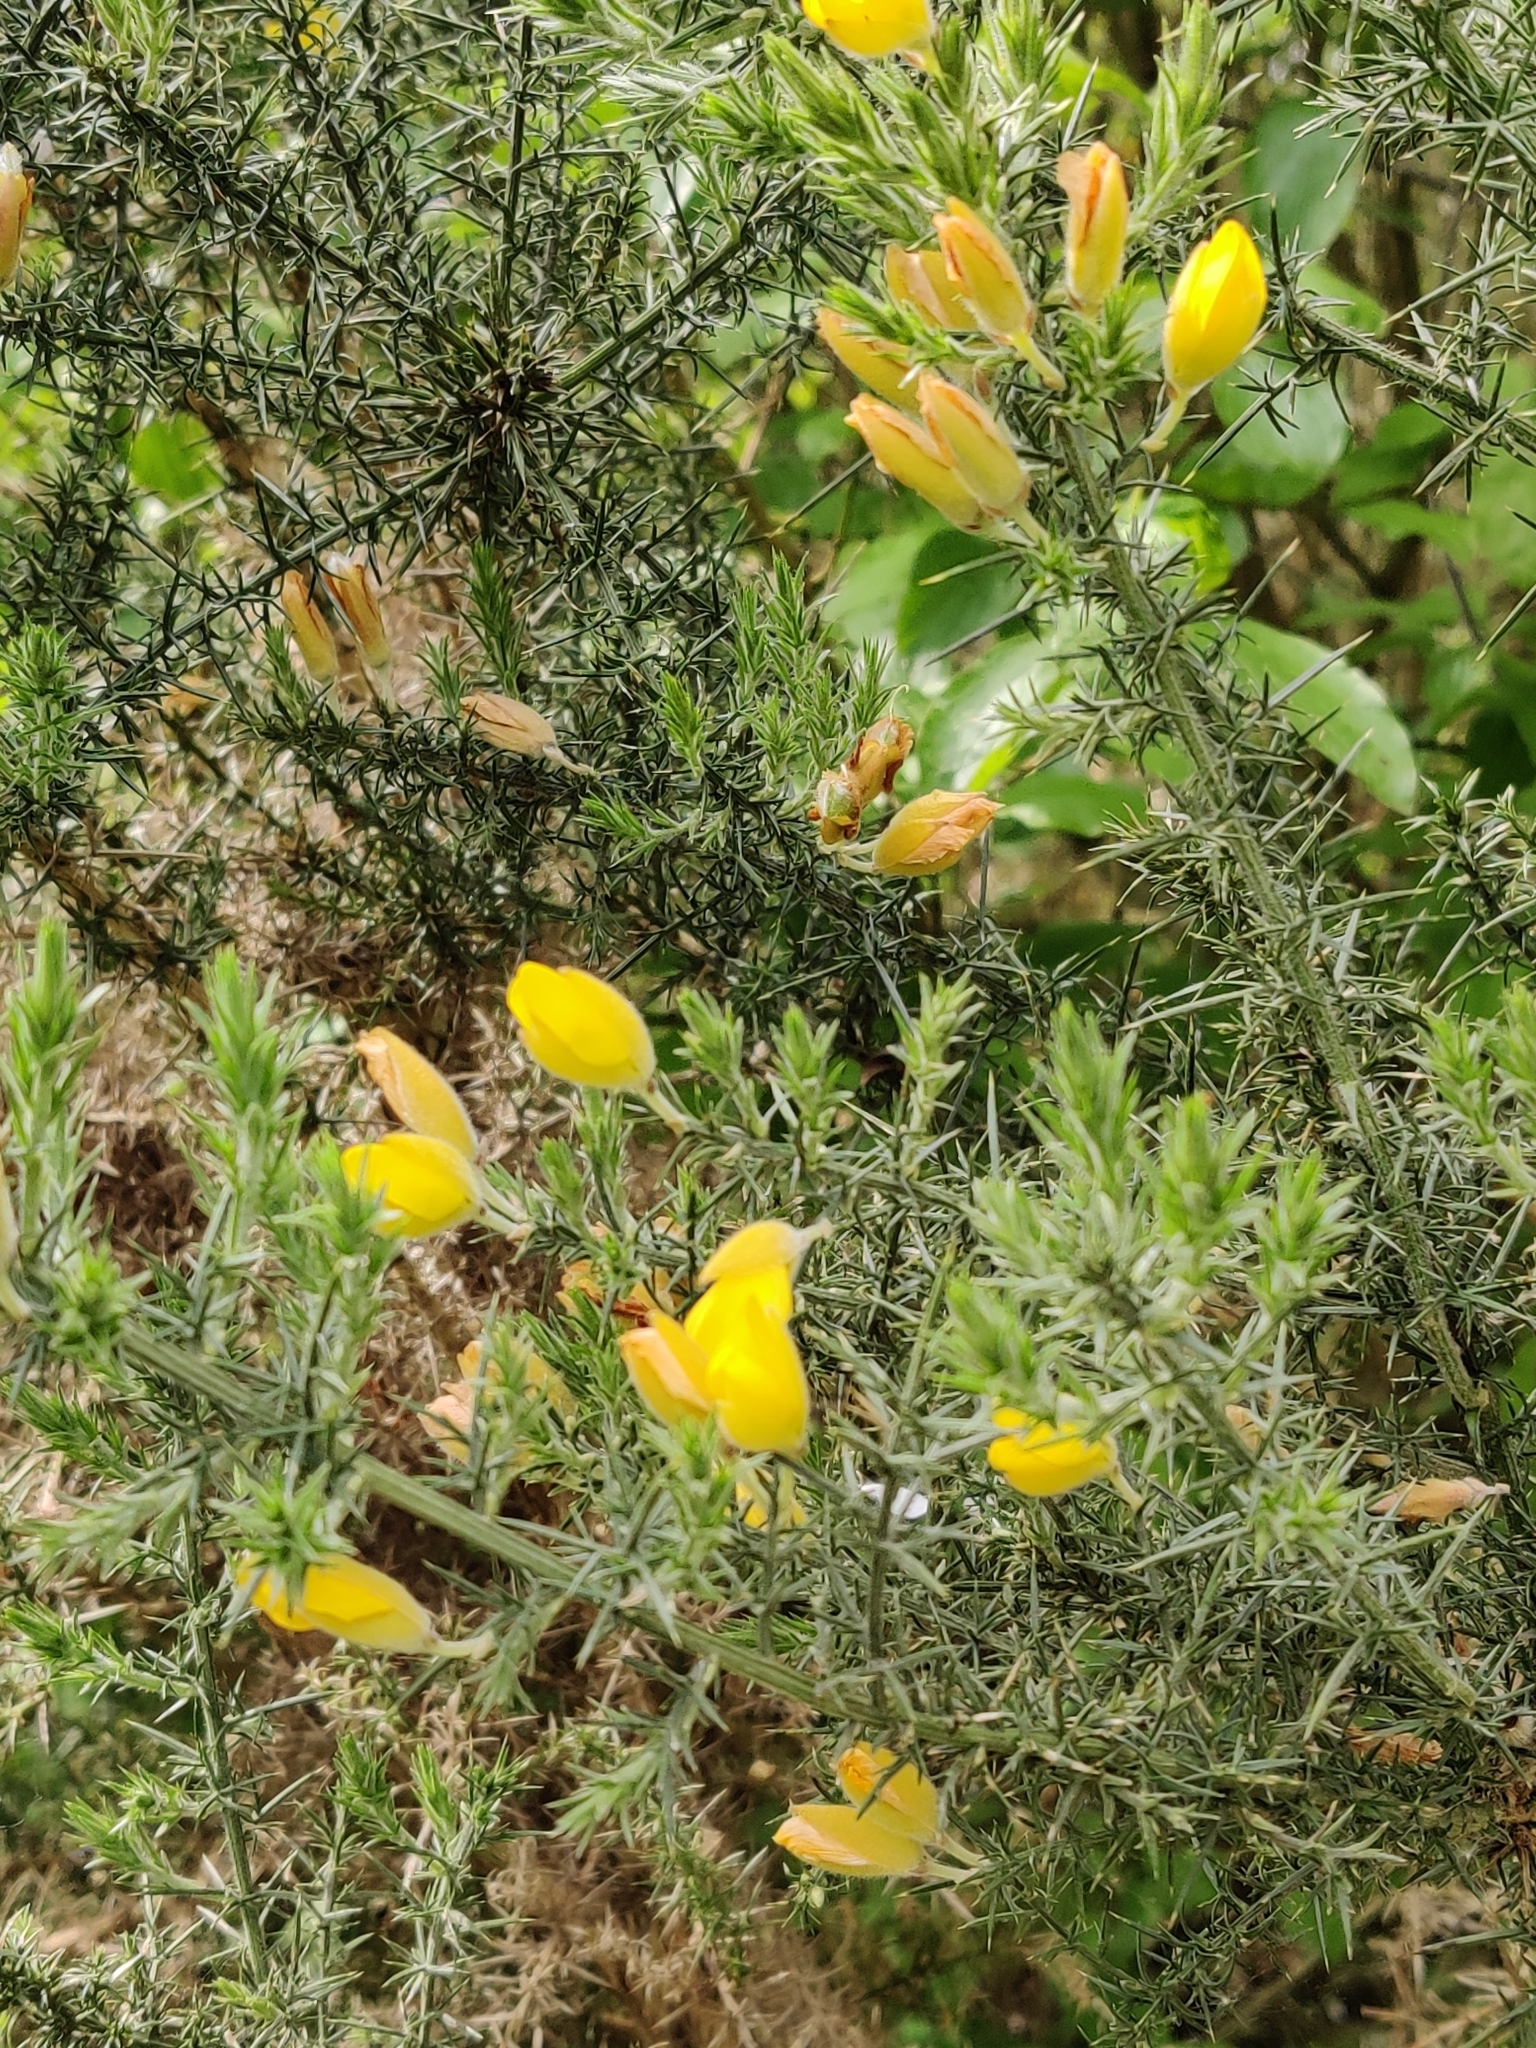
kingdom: Plantae
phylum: Tracheophyta
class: Magnoliopsida
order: Fabales
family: Fabaceae
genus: Ulex
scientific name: Ulex europaeus
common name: Common gorse
